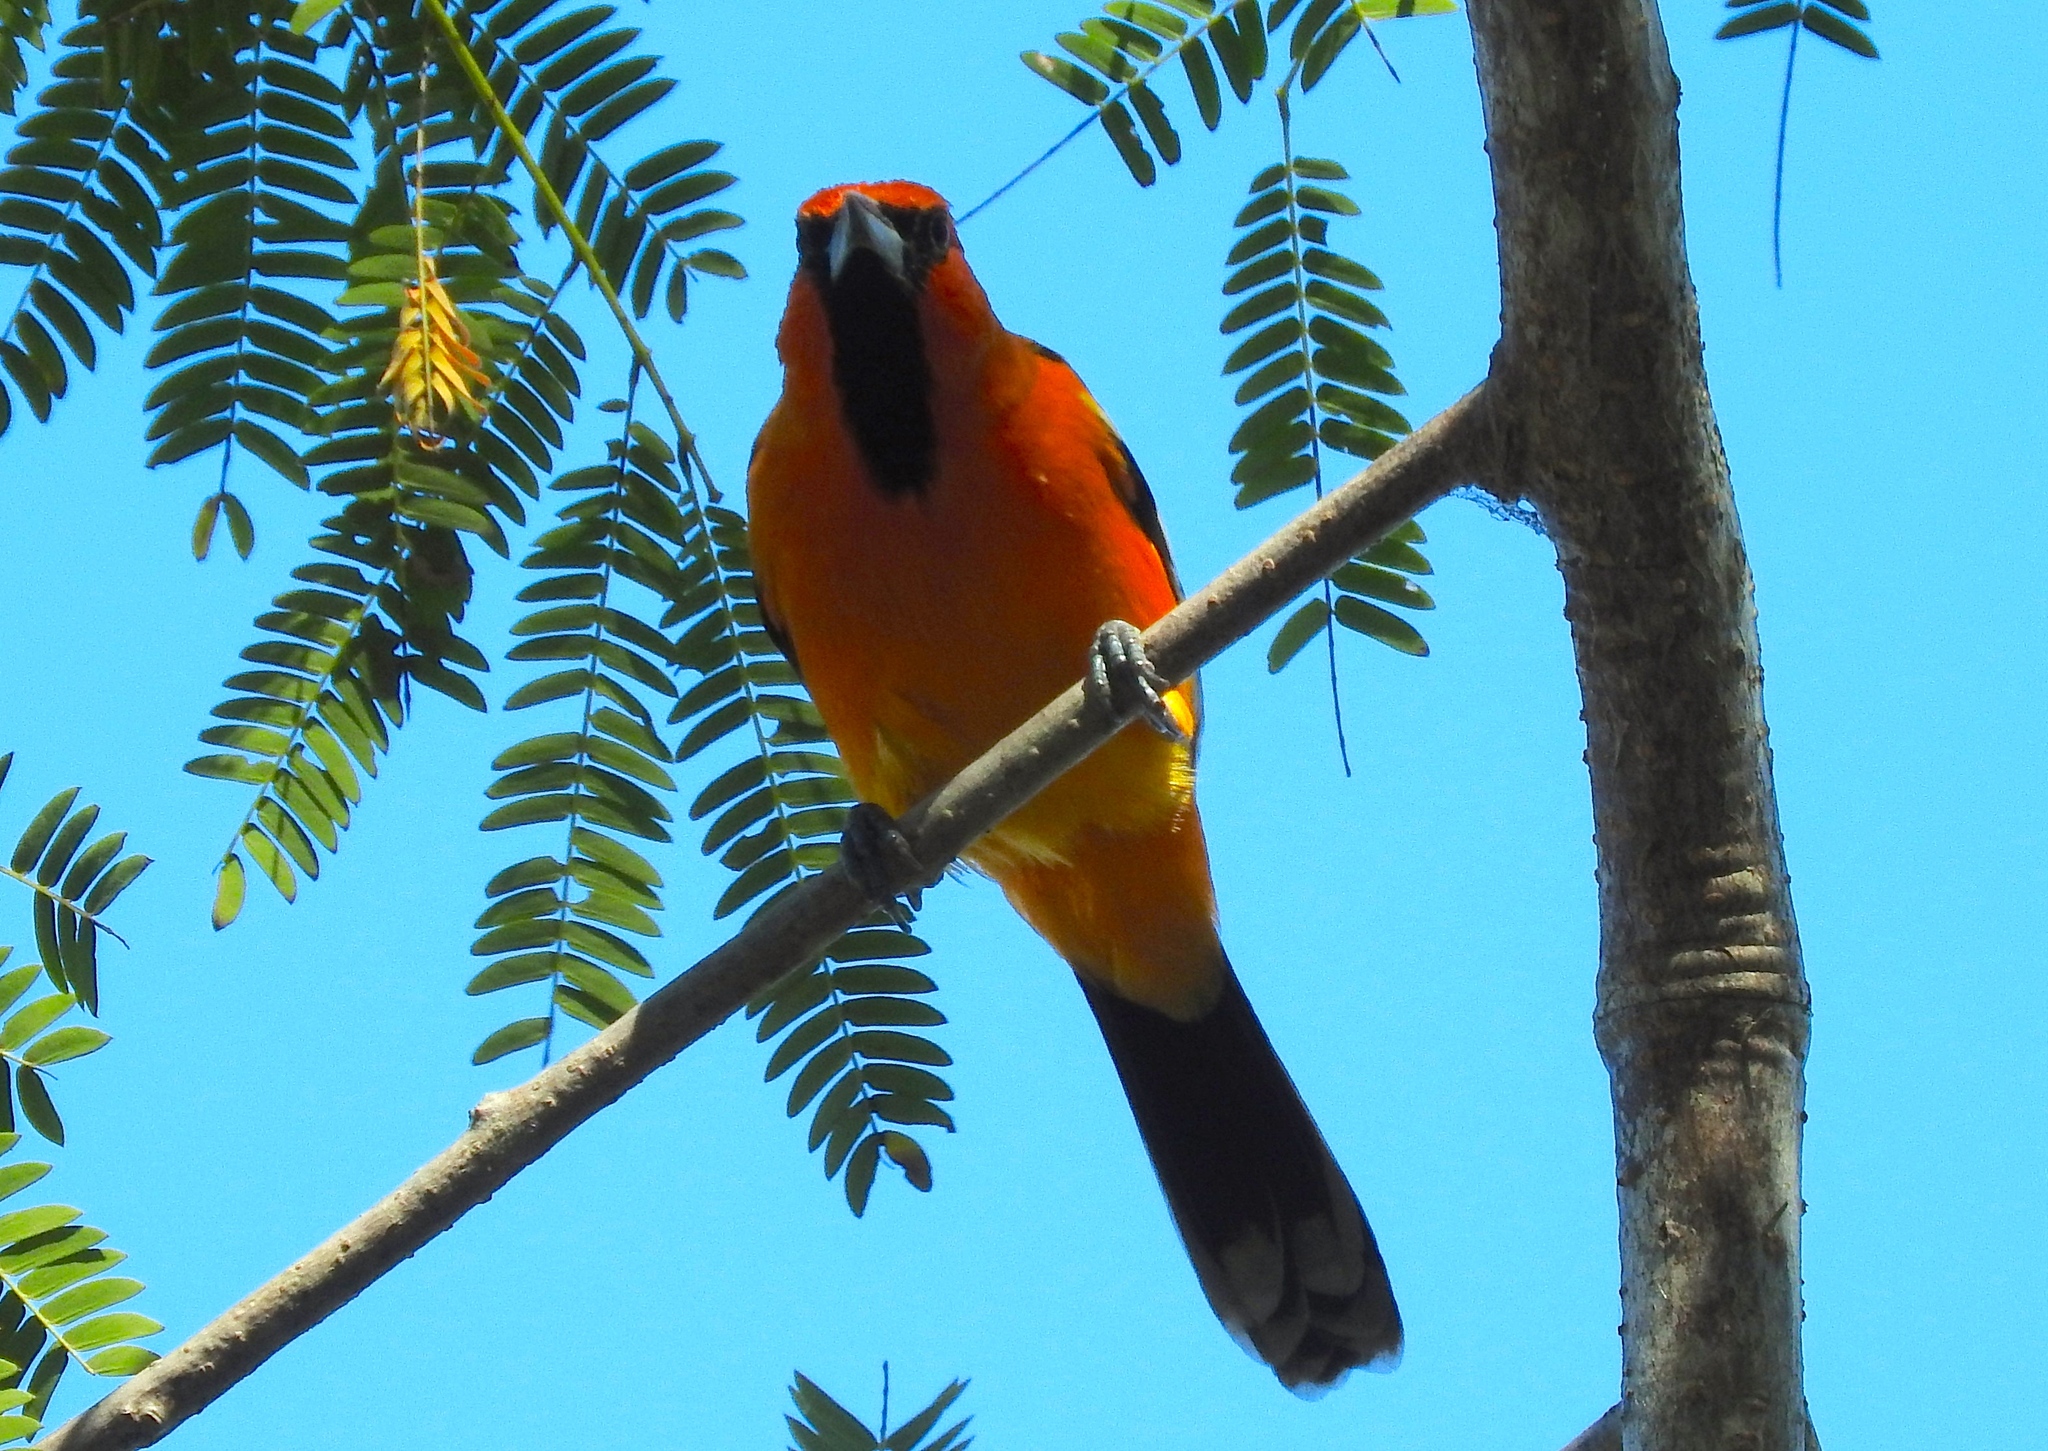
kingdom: Animalia
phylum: Chordata
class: Aves
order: Passeriformes
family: Icteridae
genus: Icterus
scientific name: Icterus pustulatus
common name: Streak-backed oriole
